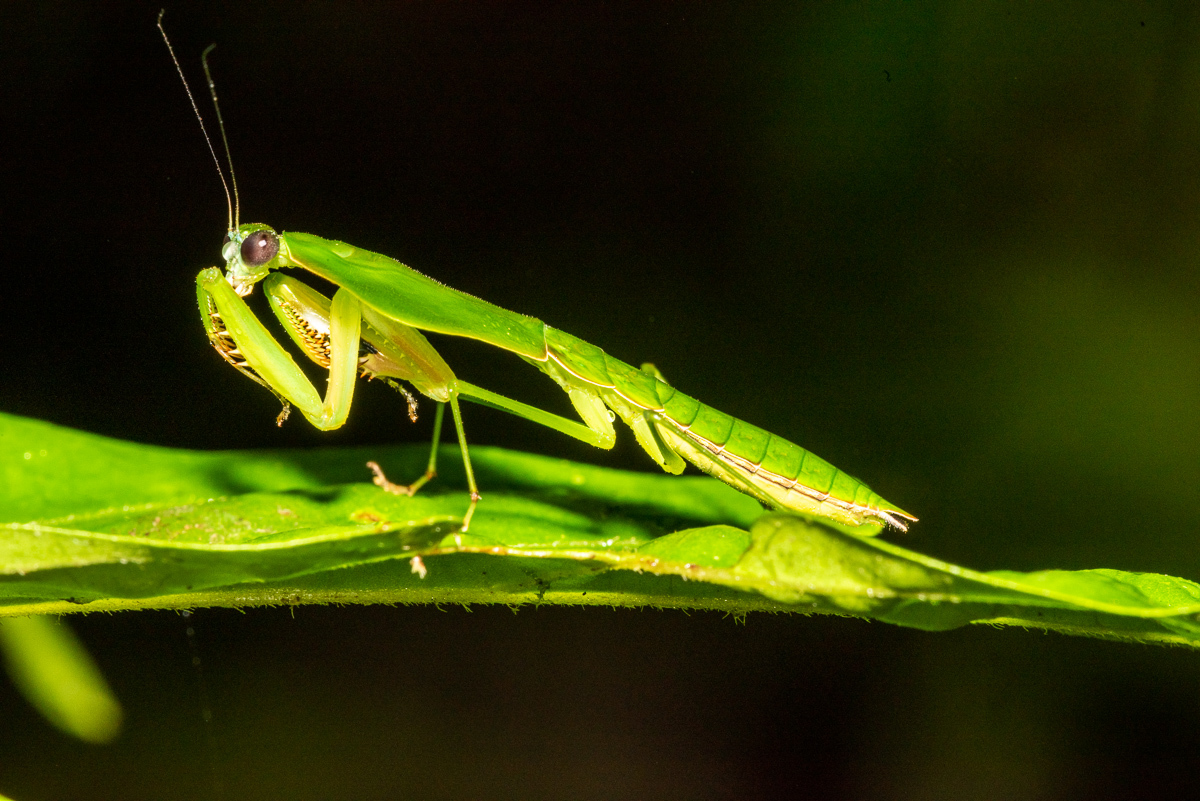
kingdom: Animalia
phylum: Arthropoda
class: Insecta
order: Mantodea
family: Mantidae
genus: Choeradodis
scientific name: Choeradodis stalii
